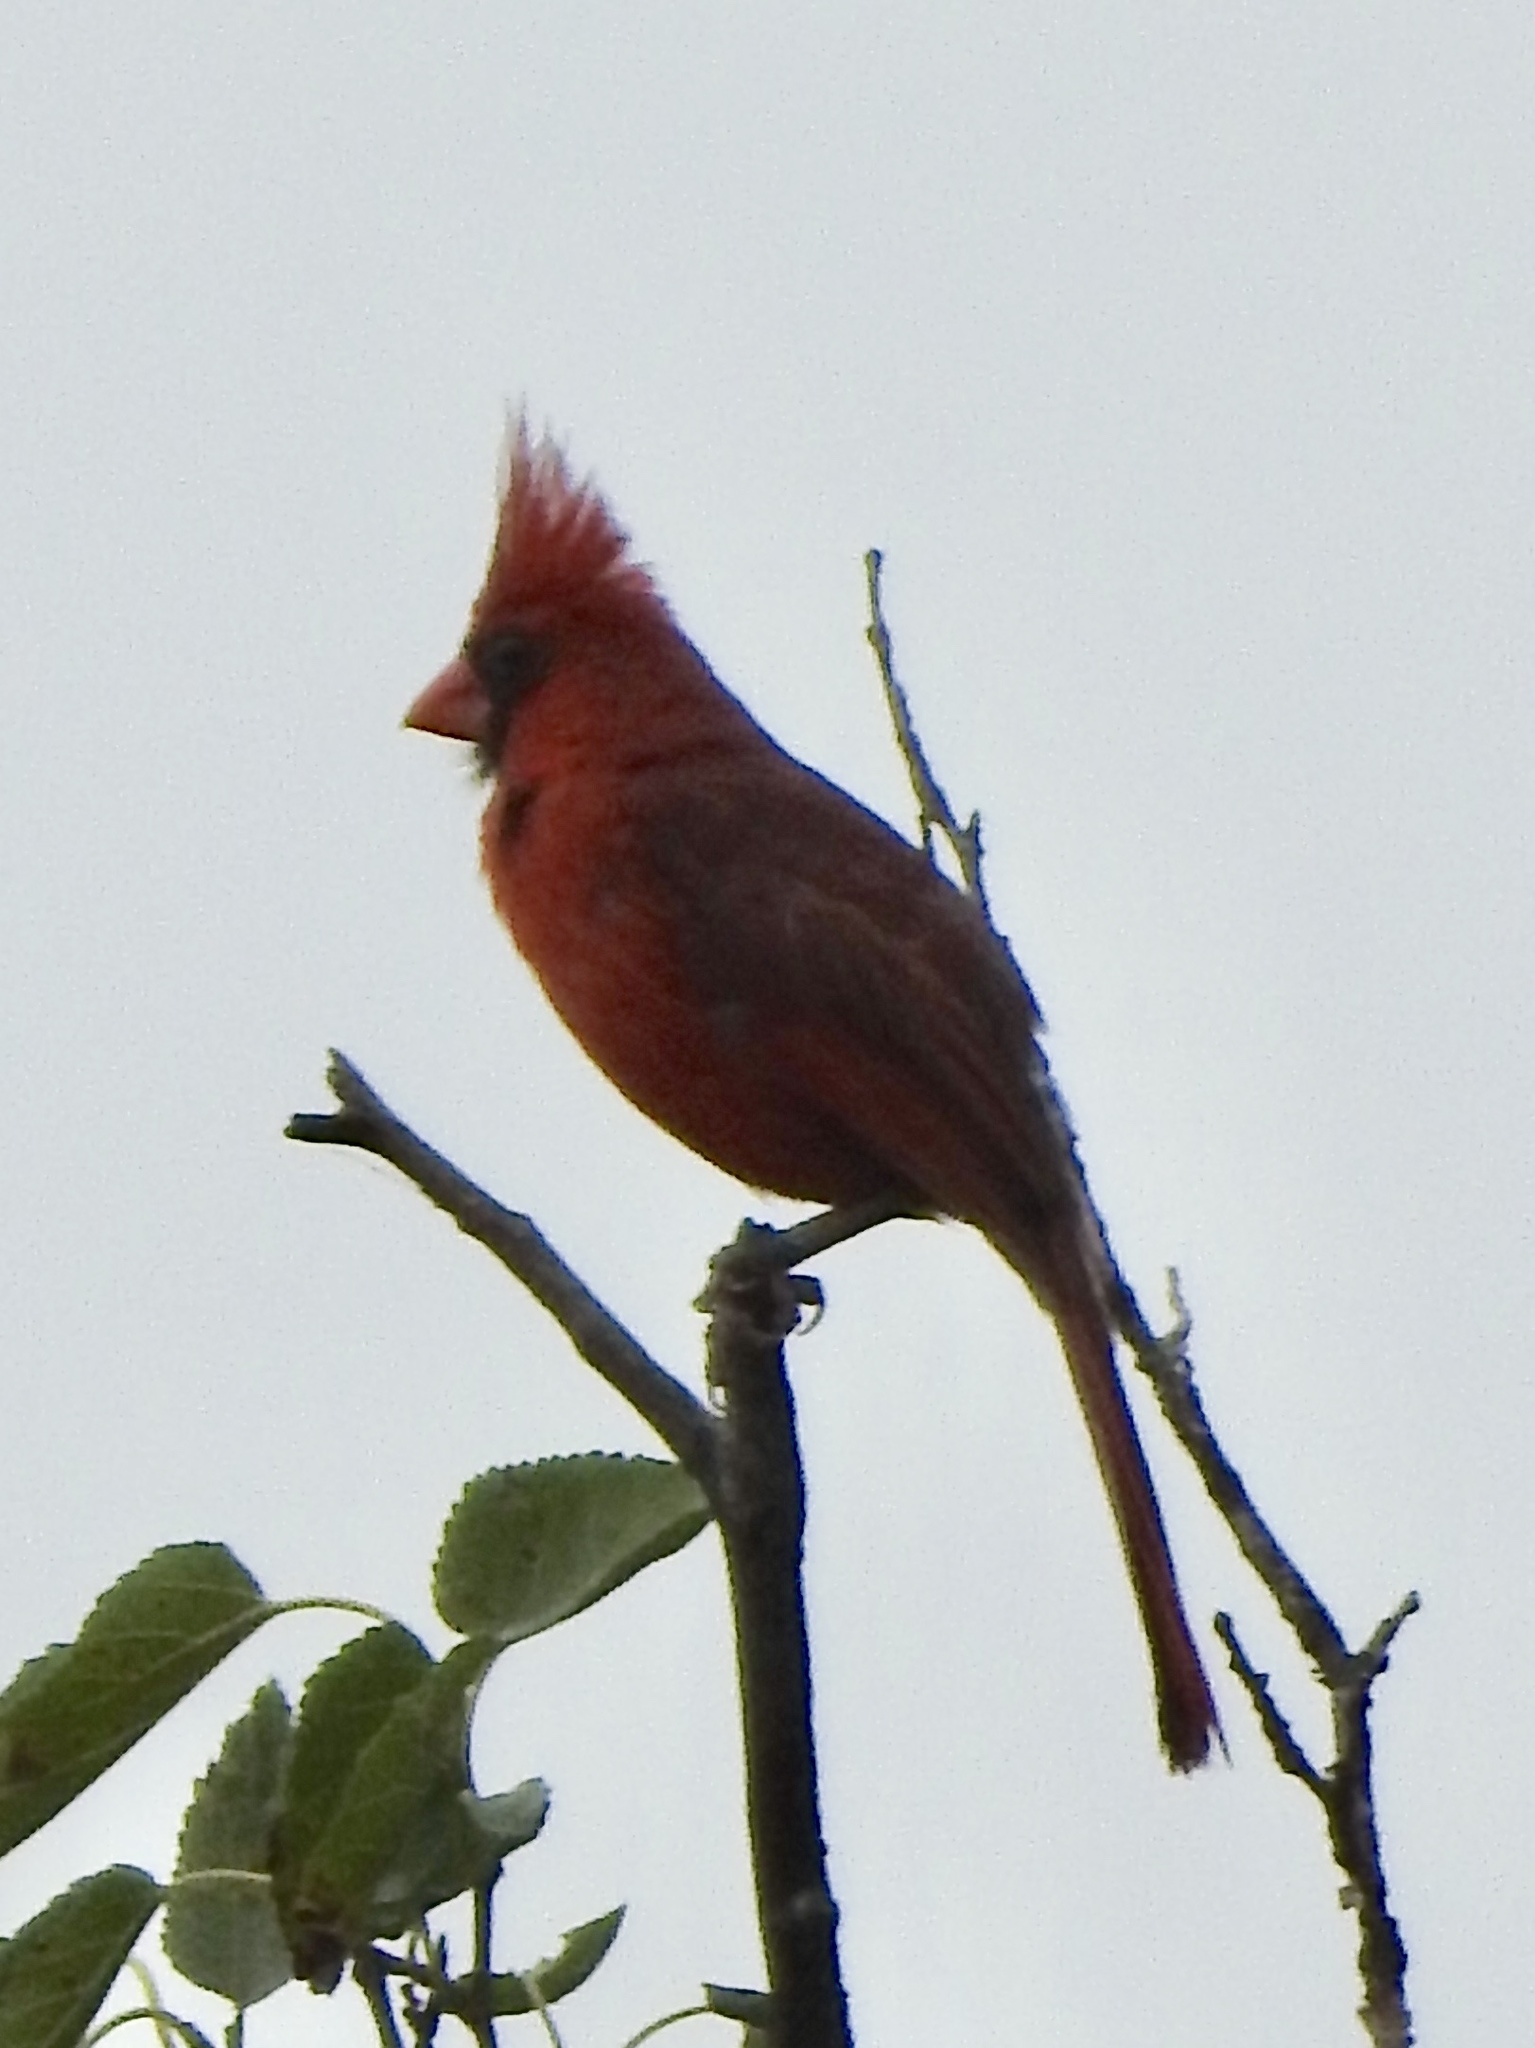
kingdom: Animalia
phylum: Chordata
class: Aves
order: Passeriformes
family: Cardinalidae
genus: Cardinalis
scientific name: Cardinalis cardinalis
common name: Northern cardinal
